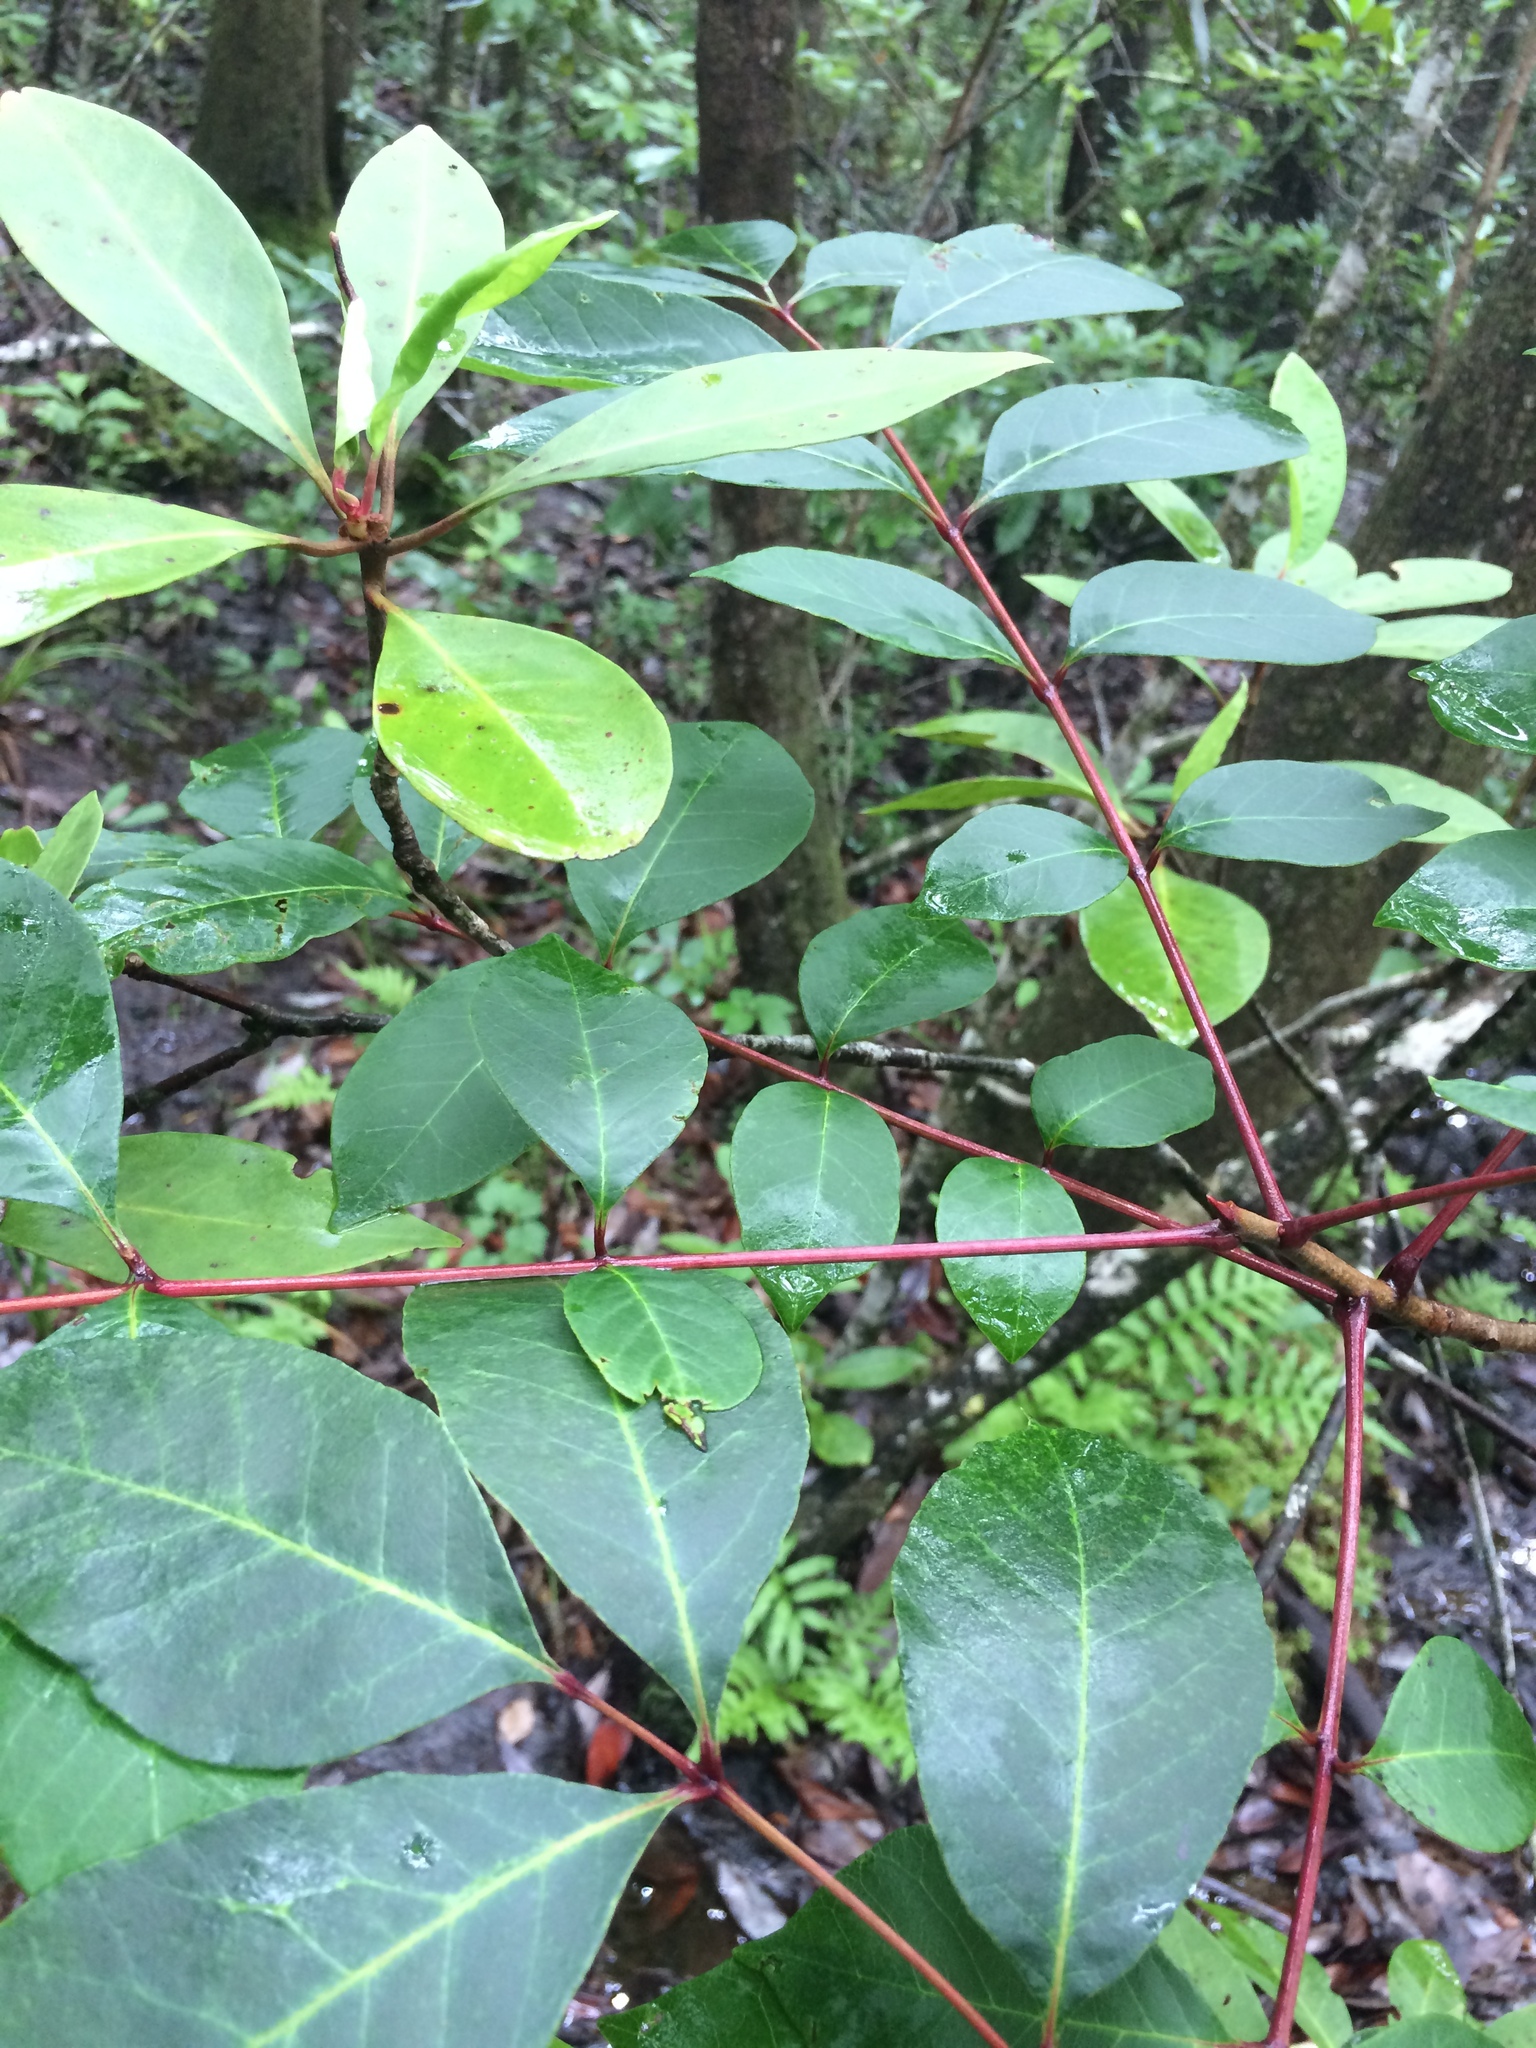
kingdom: Plantae
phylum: Tracheophyta
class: Magnoliopsida
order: Sapindales
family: Anacardiaceae
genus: Toxicodendron
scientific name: Toxicodendron vernix
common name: Poison sumac
